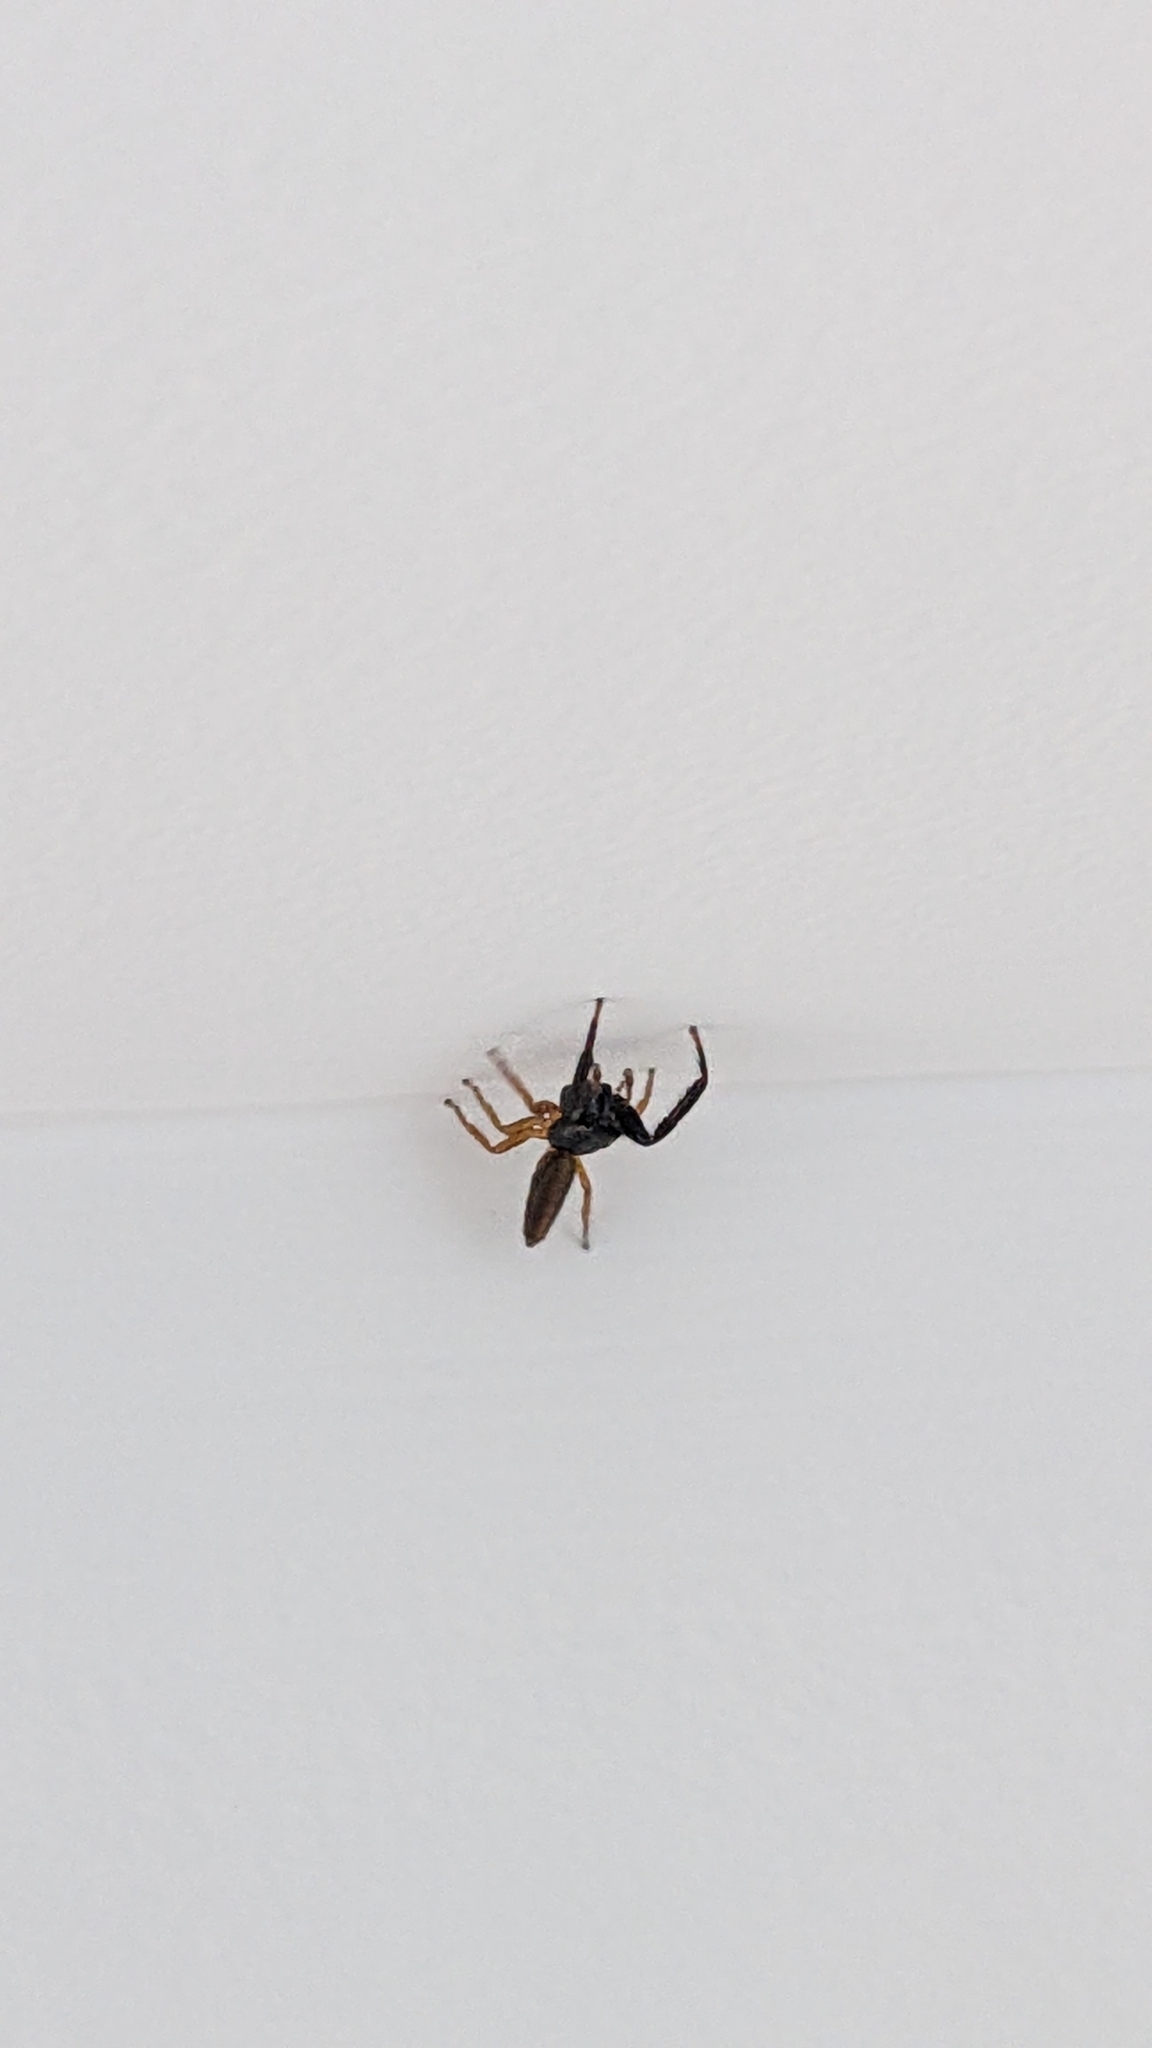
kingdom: Animalia
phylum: Arthropoda
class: Arachnida
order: Araneae
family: Salticidae
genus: Trite
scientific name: Trite planiceps
